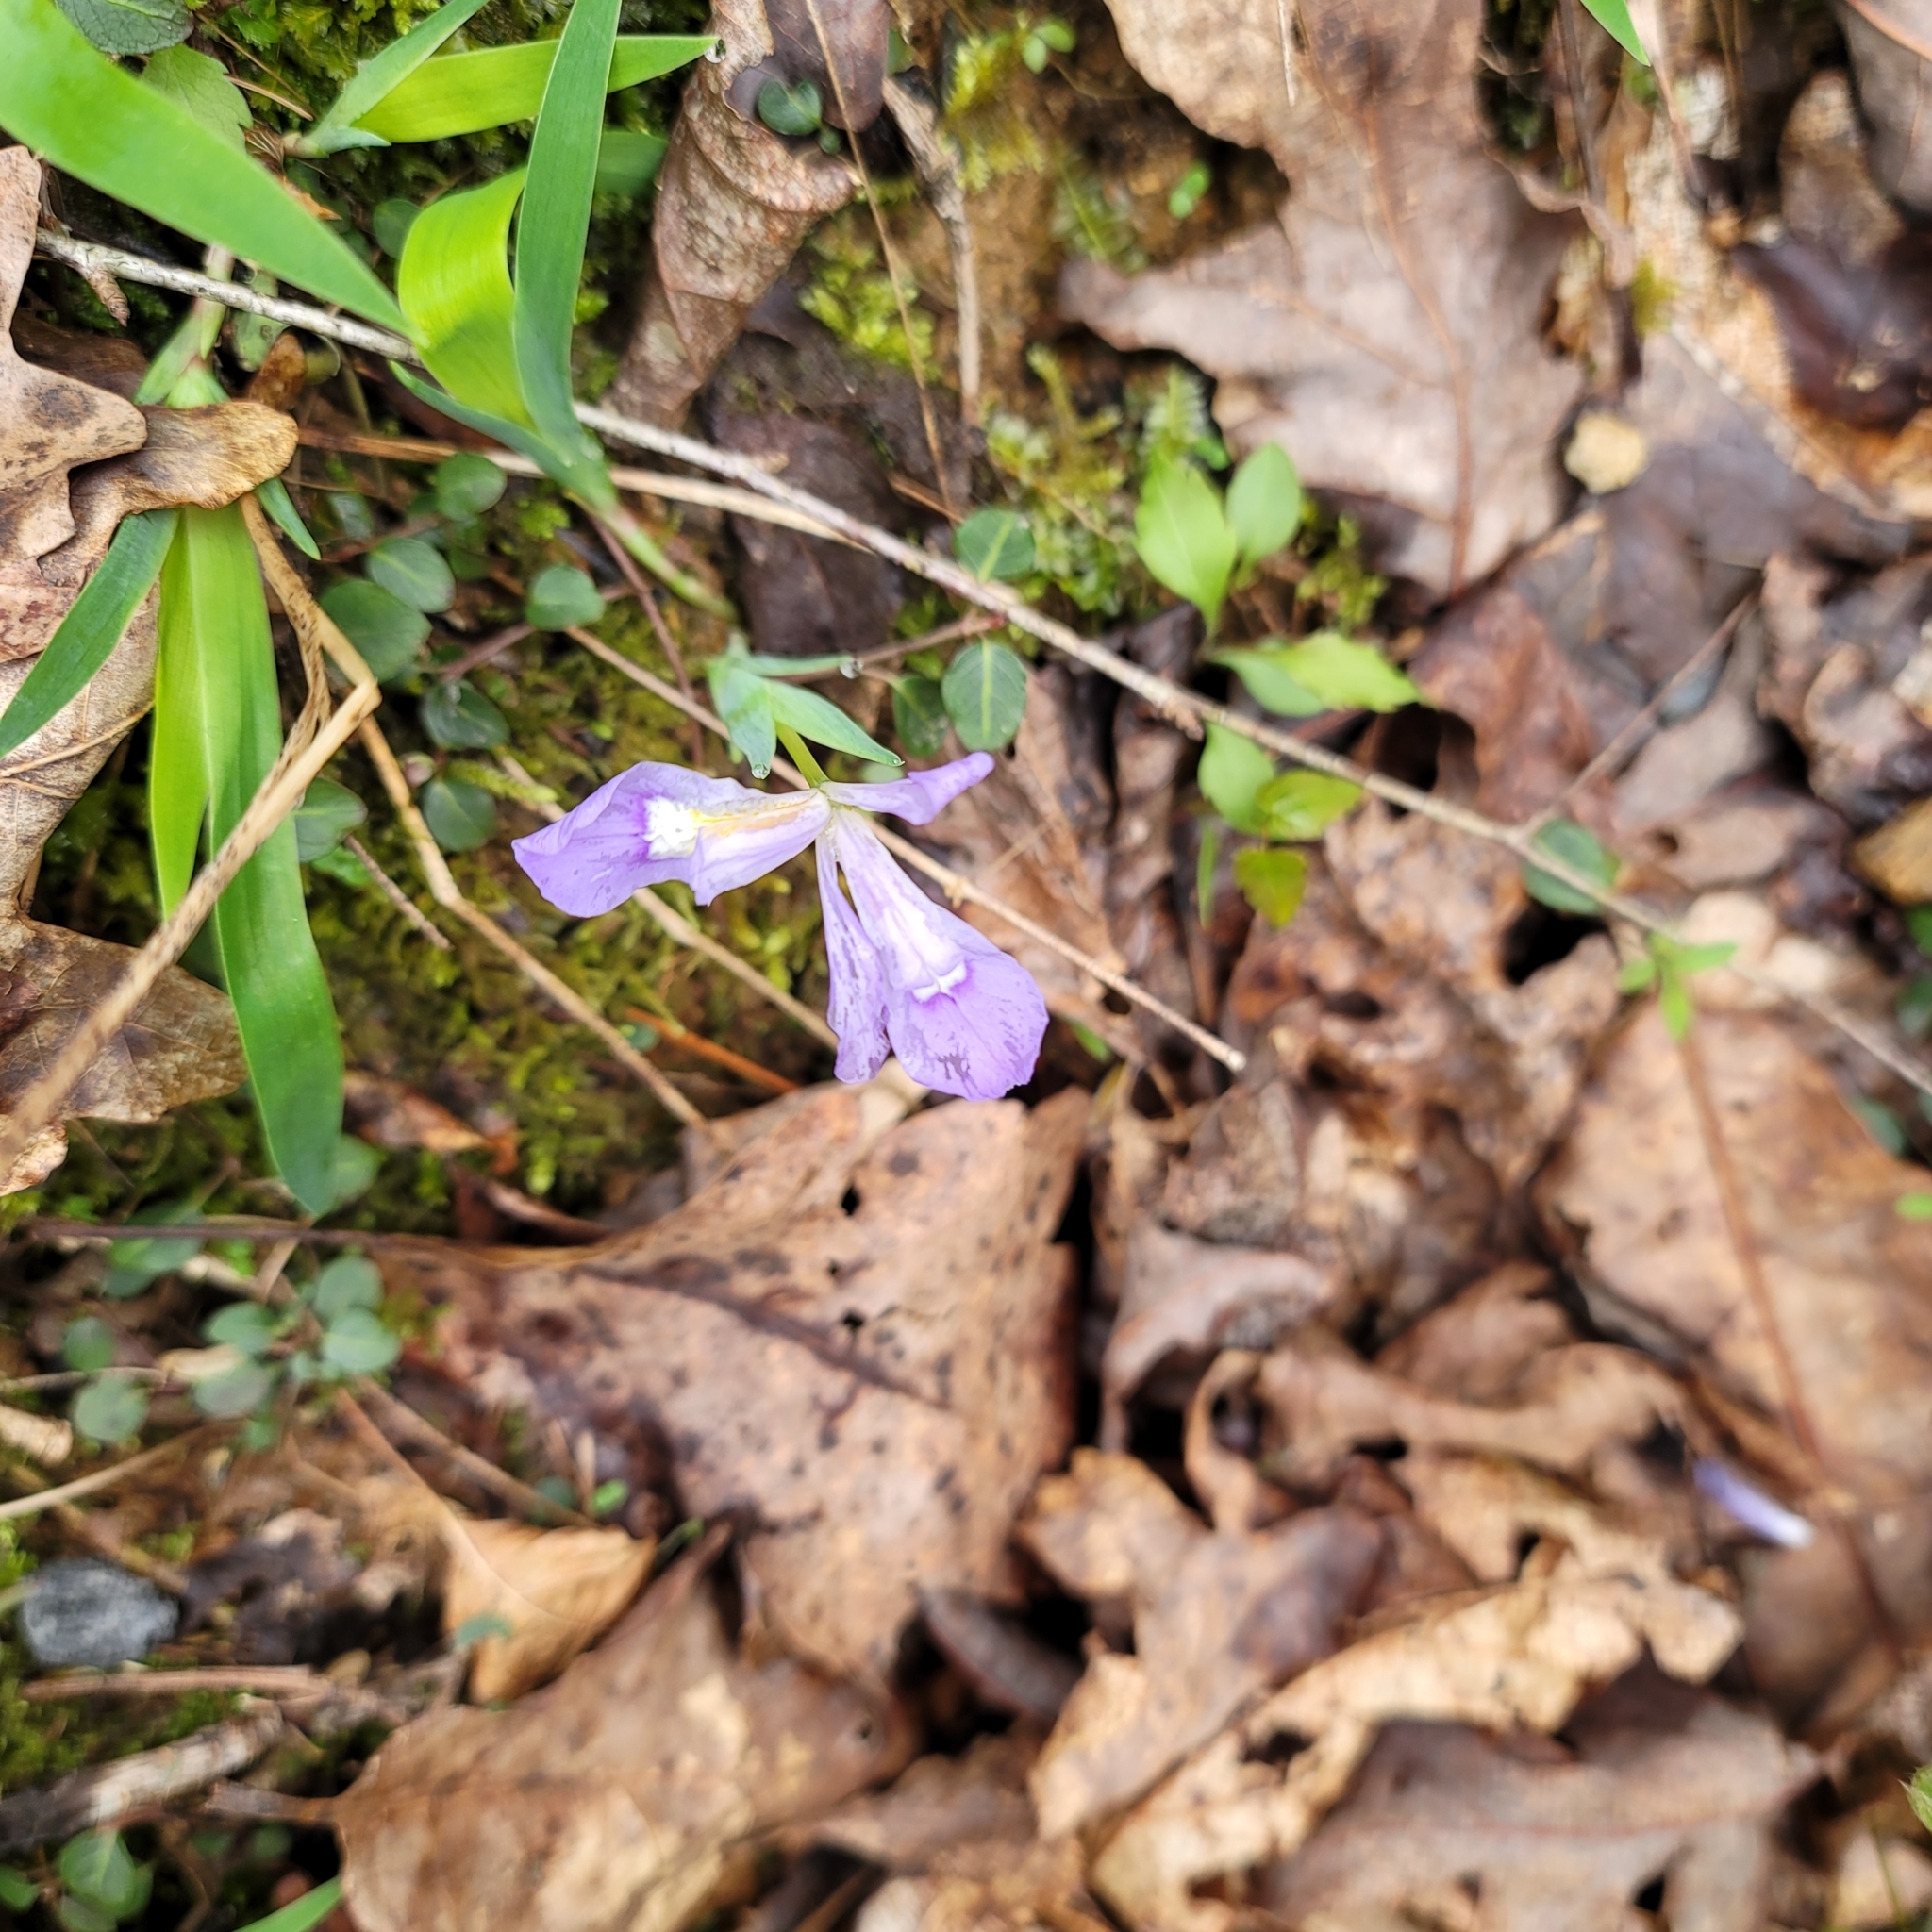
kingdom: Plantae
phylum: Tracheophyta
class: Liliopsida
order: Asparagales
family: Iridaceae
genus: Iris
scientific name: Iris cristata
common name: Crested iris
